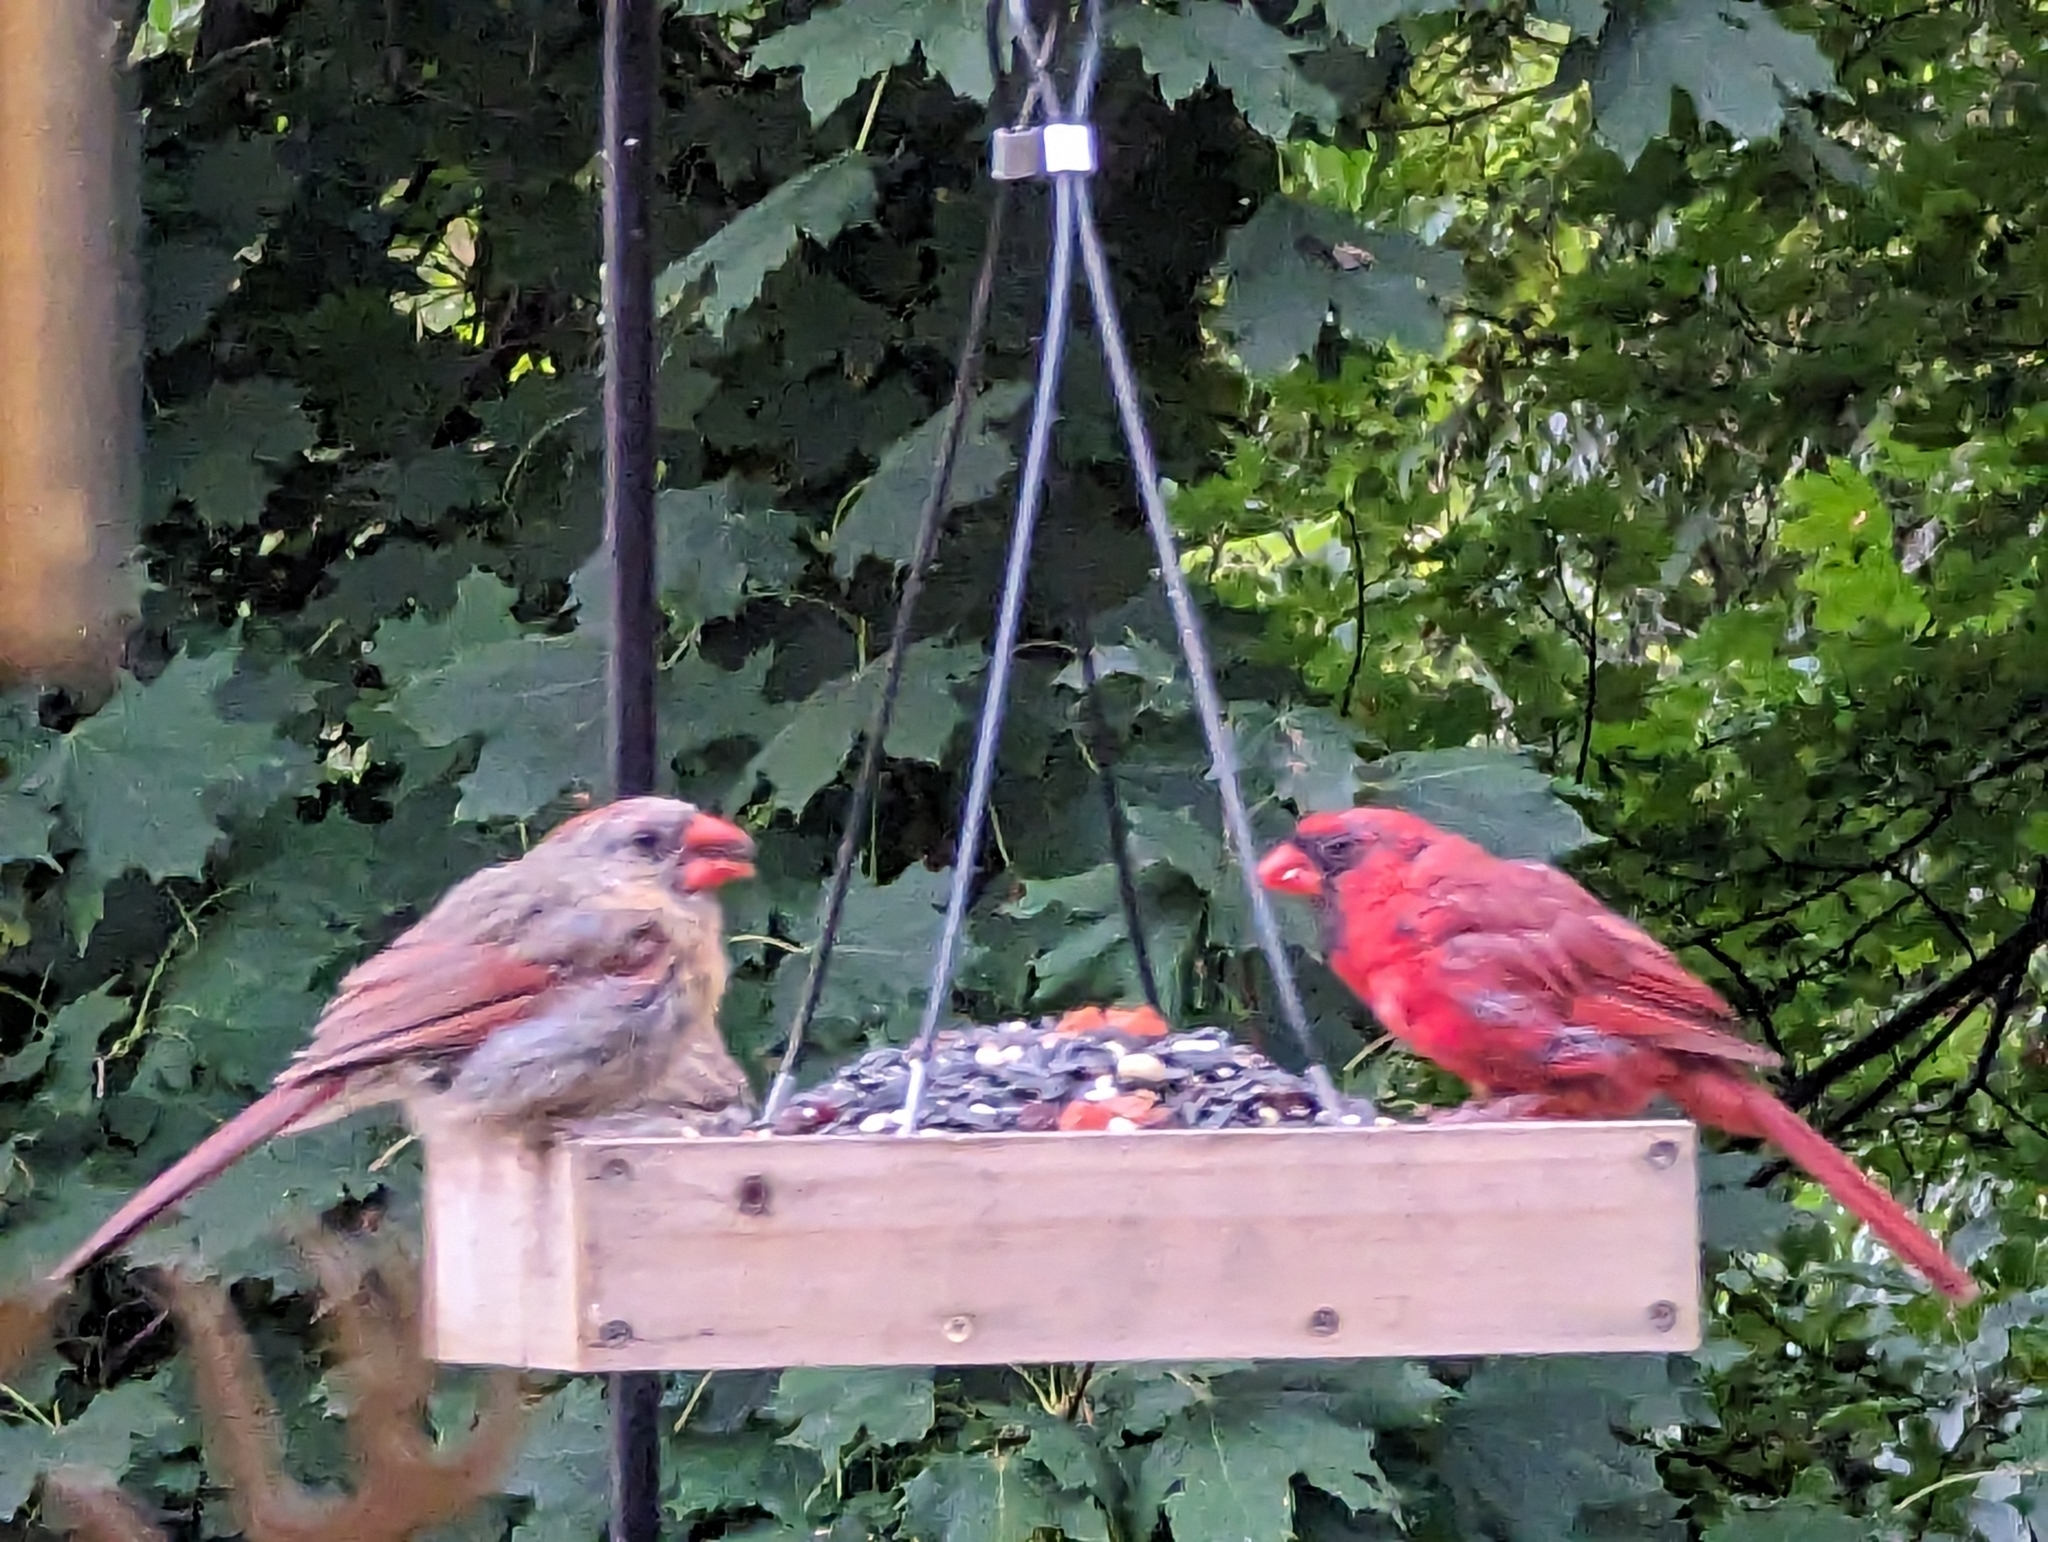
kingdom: Animalia
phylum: Chordata
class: Aves
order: Passeriformes
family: Cardinalidae
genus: Cardinalis
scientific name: Cardinalis cardinalis
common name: Northern cardinal
